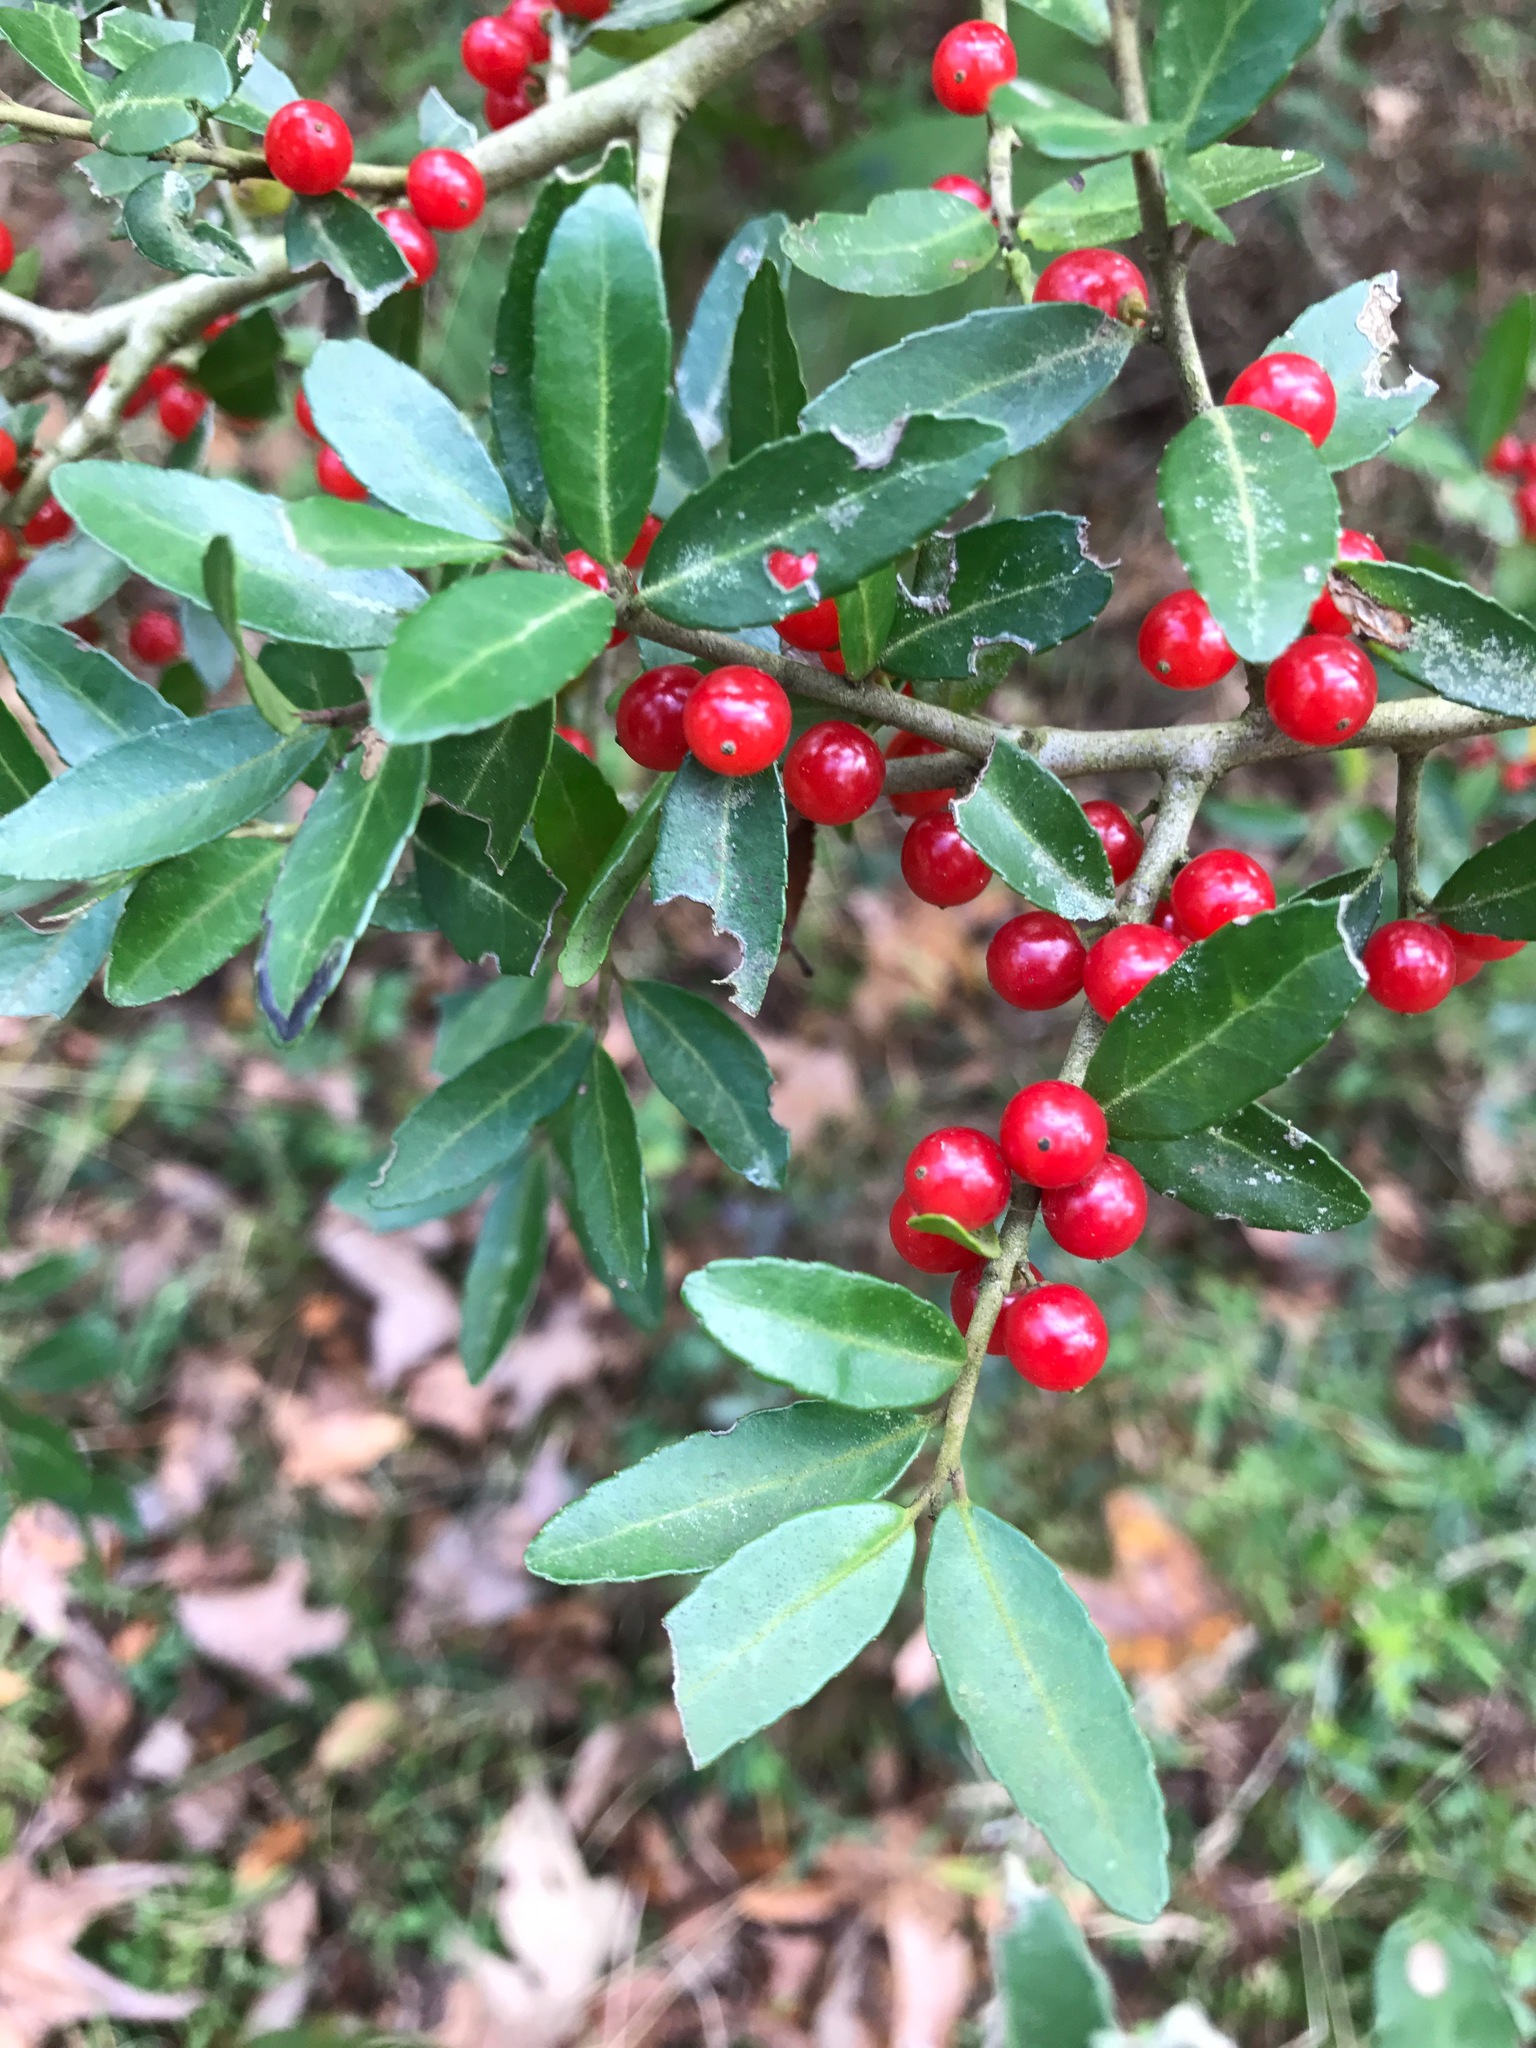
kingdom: Plantae
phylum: Tracheophyta
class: Magnoliopsida
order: Aquifoliales
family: Aquifoliaceae
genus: Ilex
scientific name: Ilex vomitoria
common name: Yaupon holly
